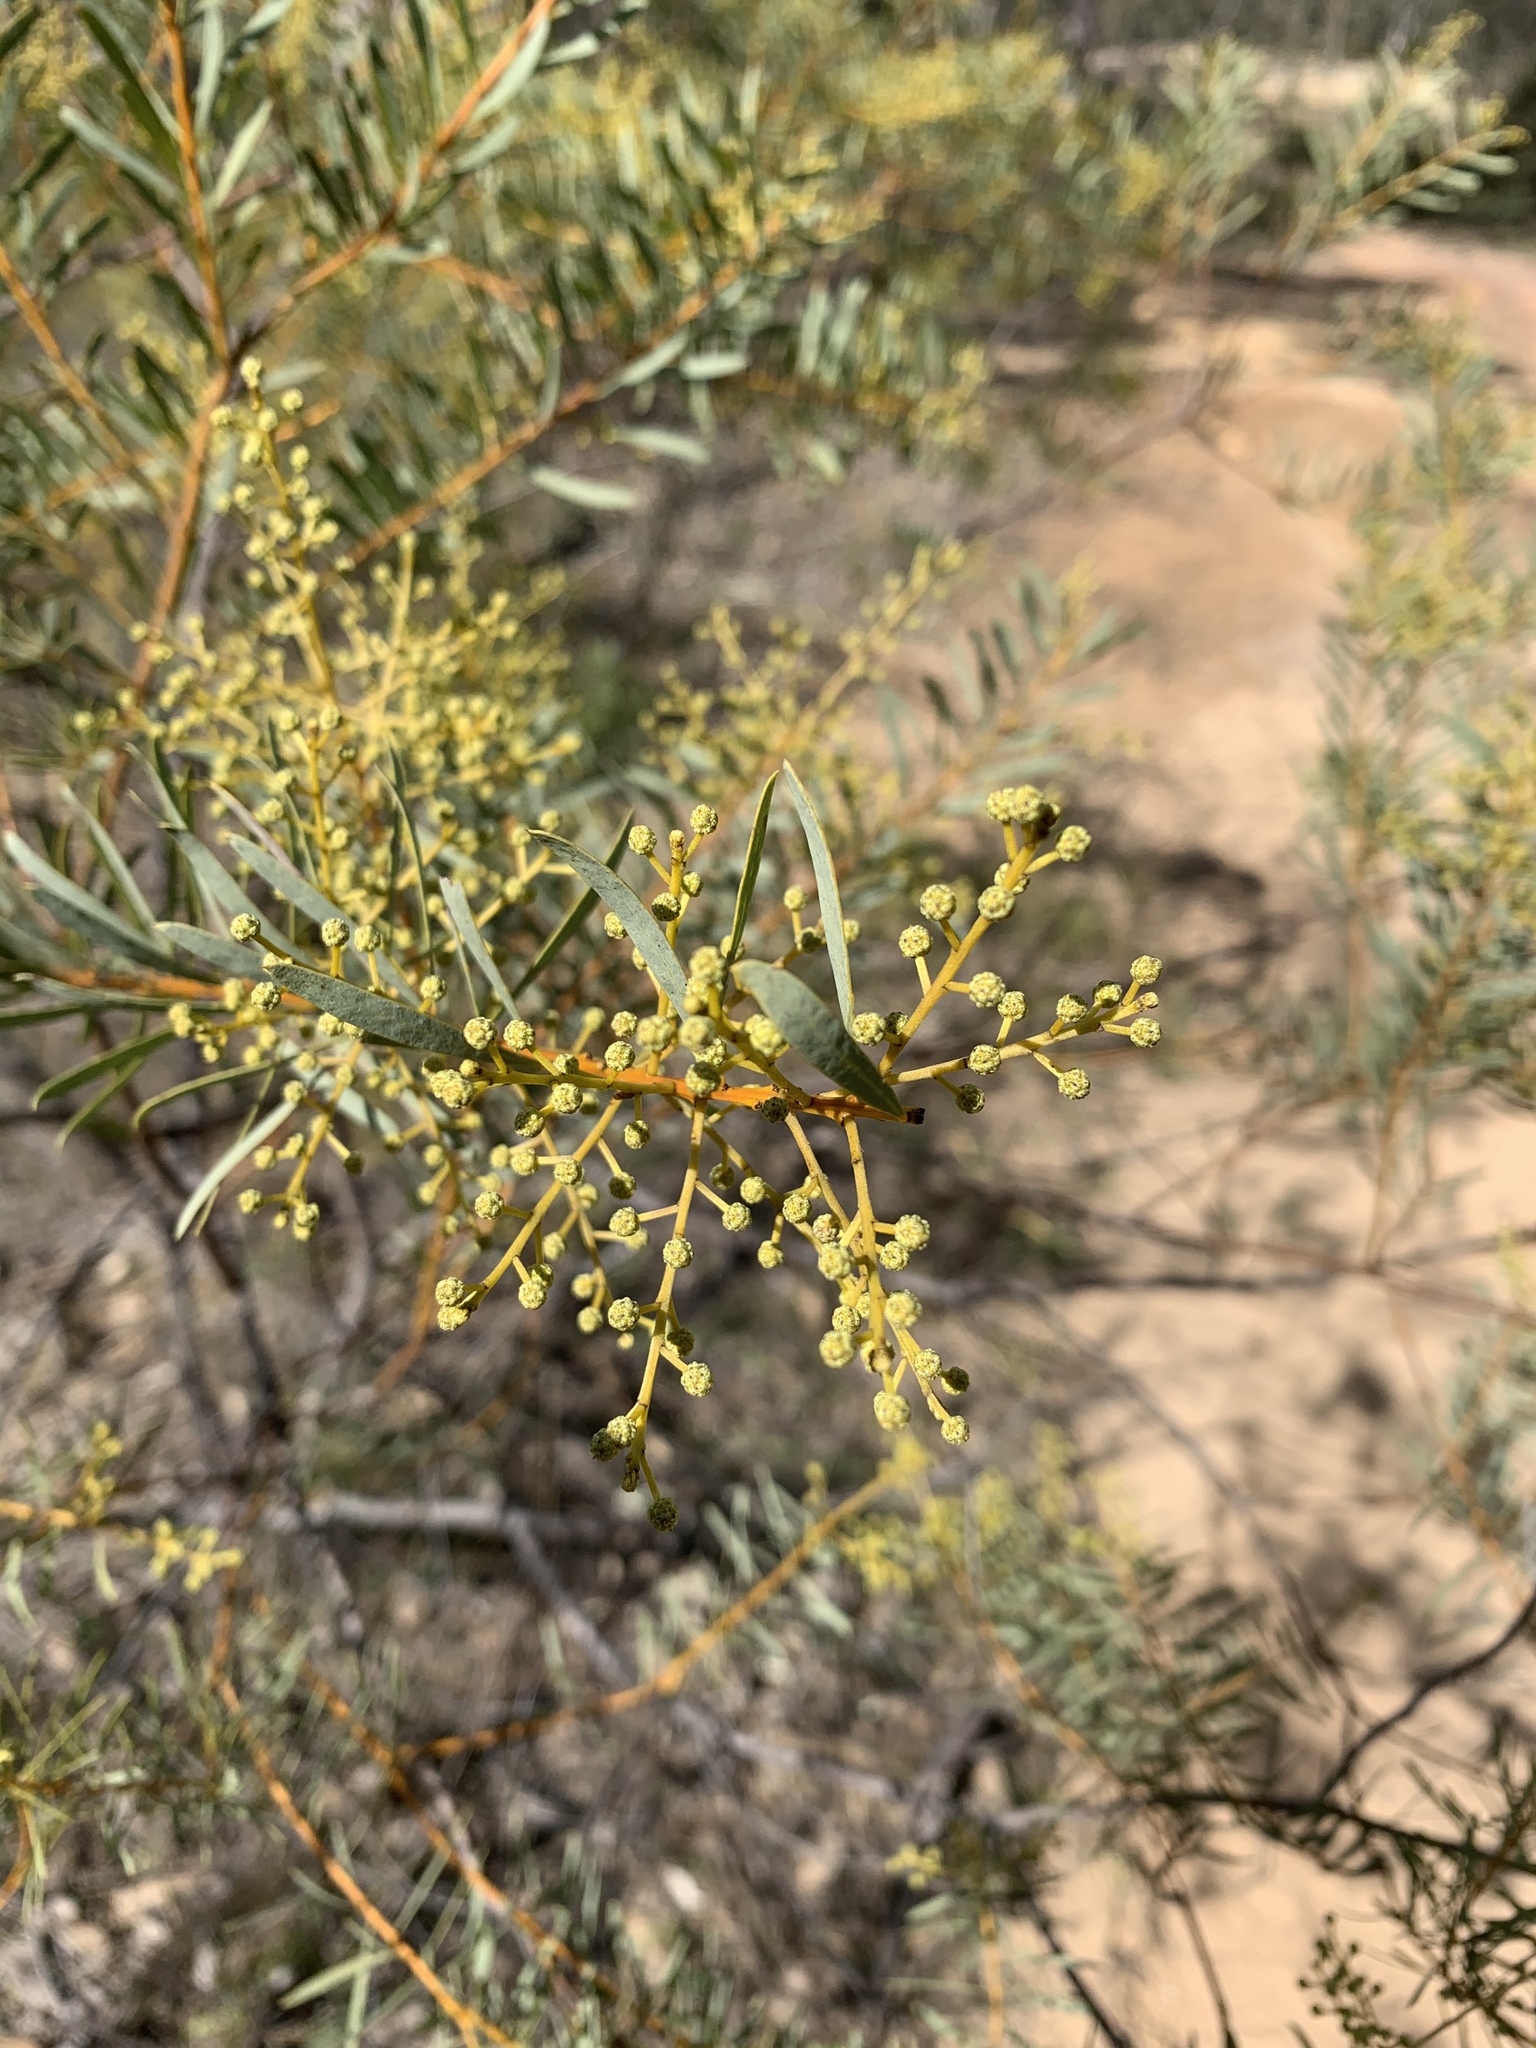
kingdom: Plantae
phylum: Tracheophyta
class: Magnoliopsida
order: Fabales
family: Fabaceae
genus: Acacia
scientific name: Acacia decora
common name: Showy wattle
